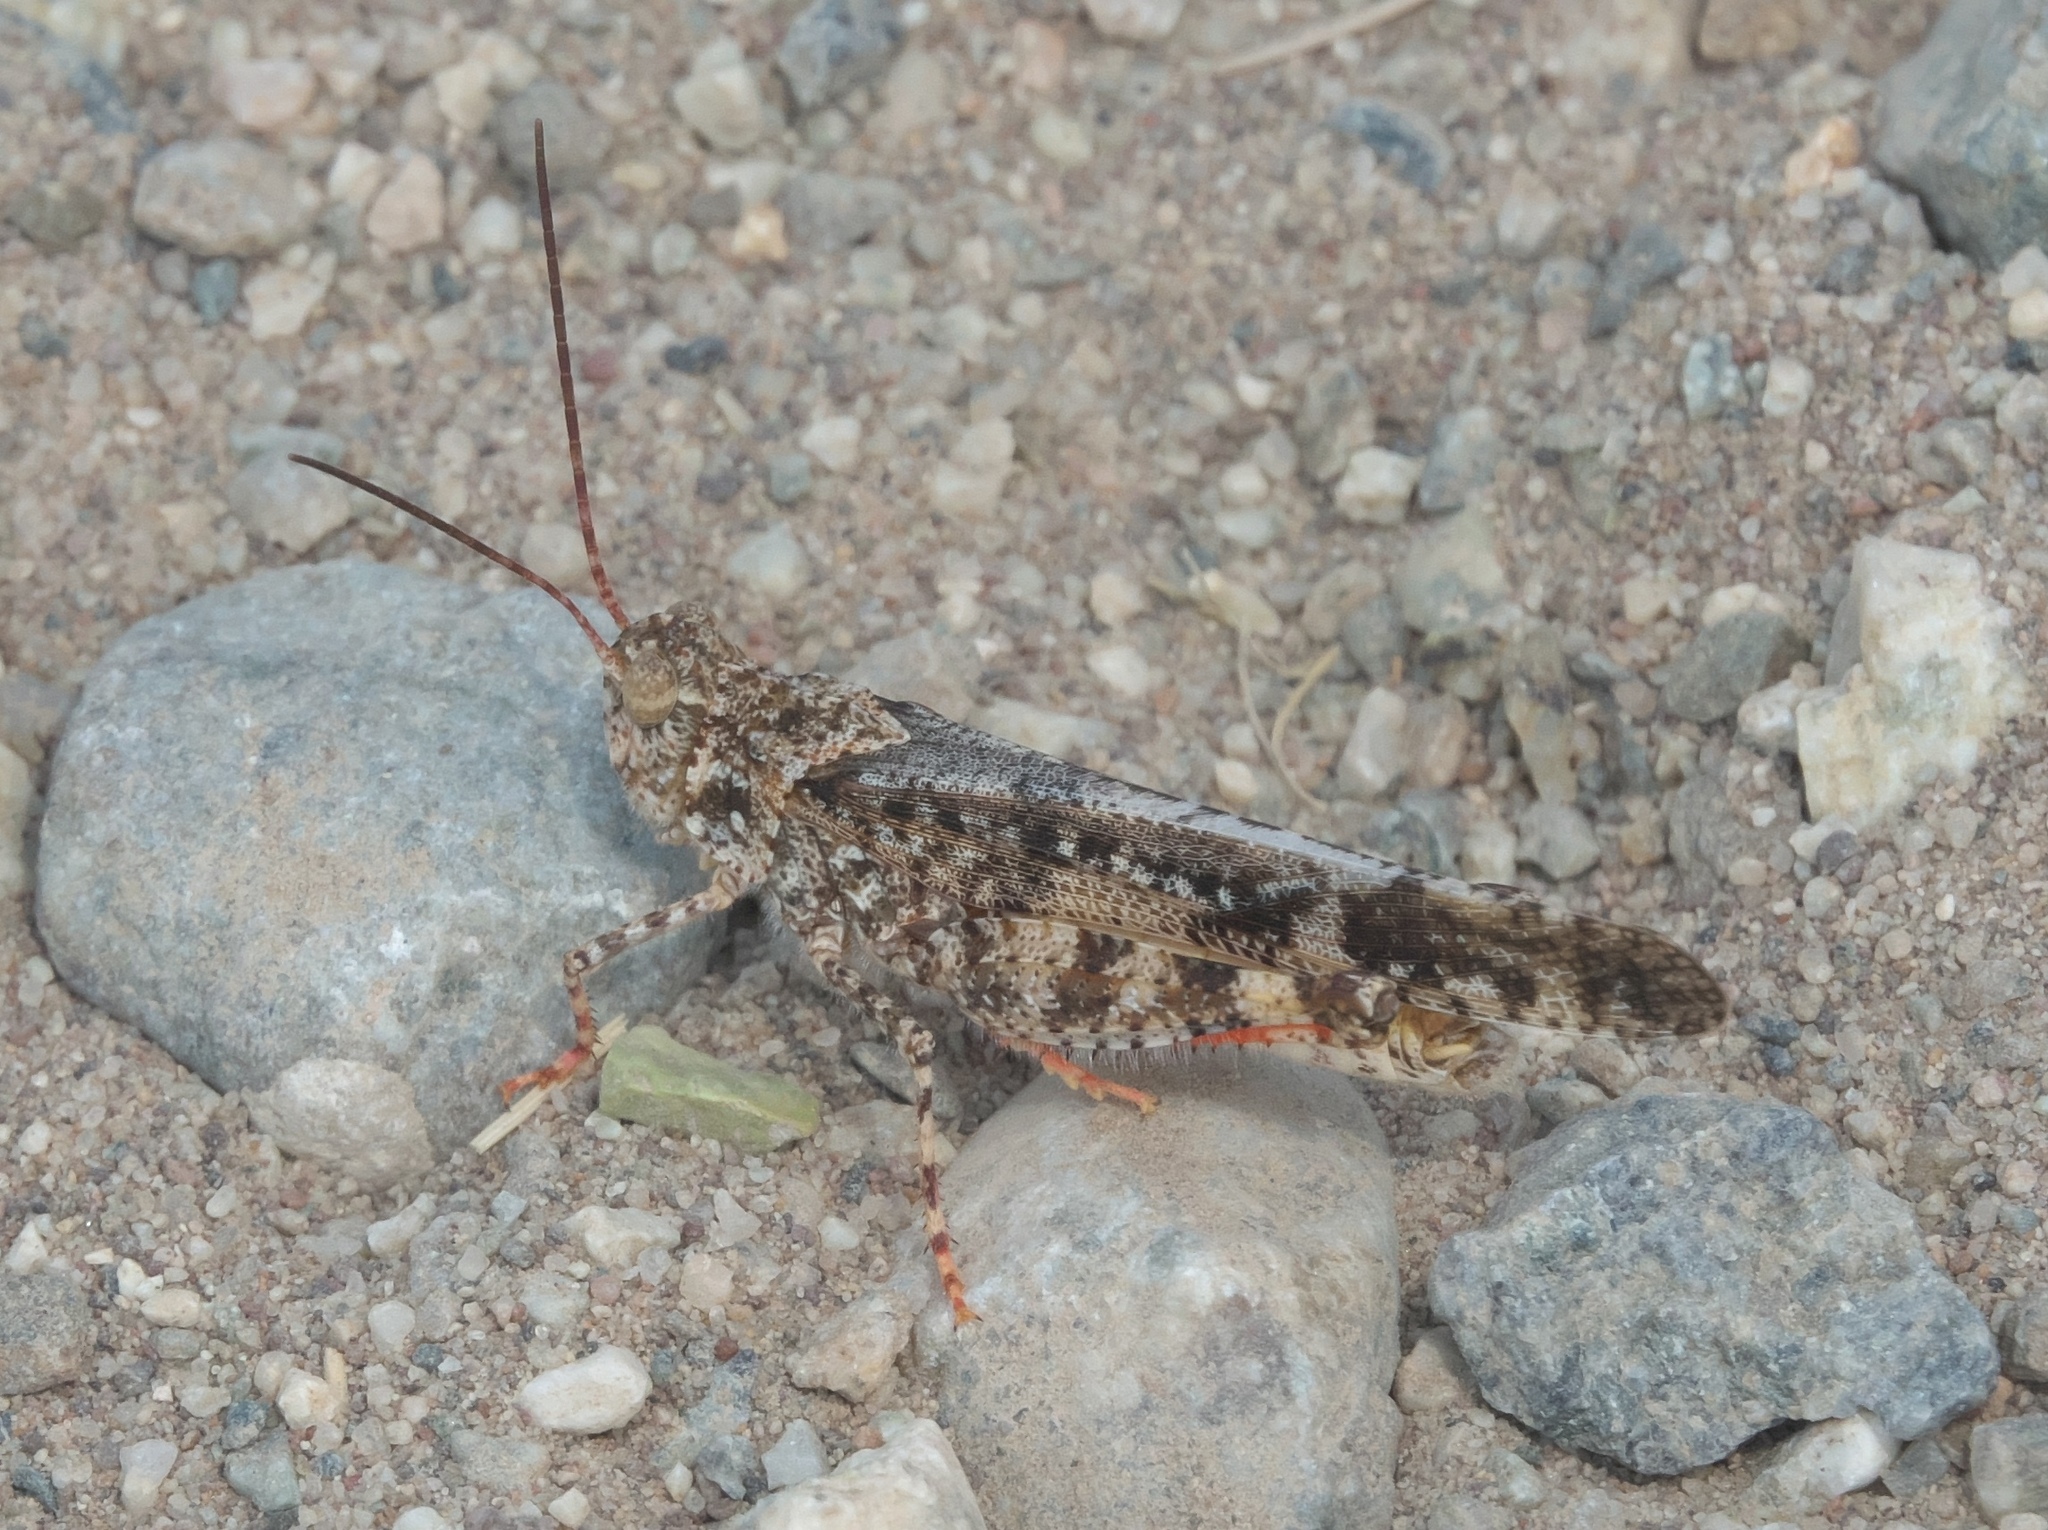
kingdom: Animalia
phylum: Arthropoda
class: Insecta
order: Orthoptera
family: Acrididae
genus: Spharagemon
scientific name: Spharagemon collare
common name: Mottled sand grasshopper
